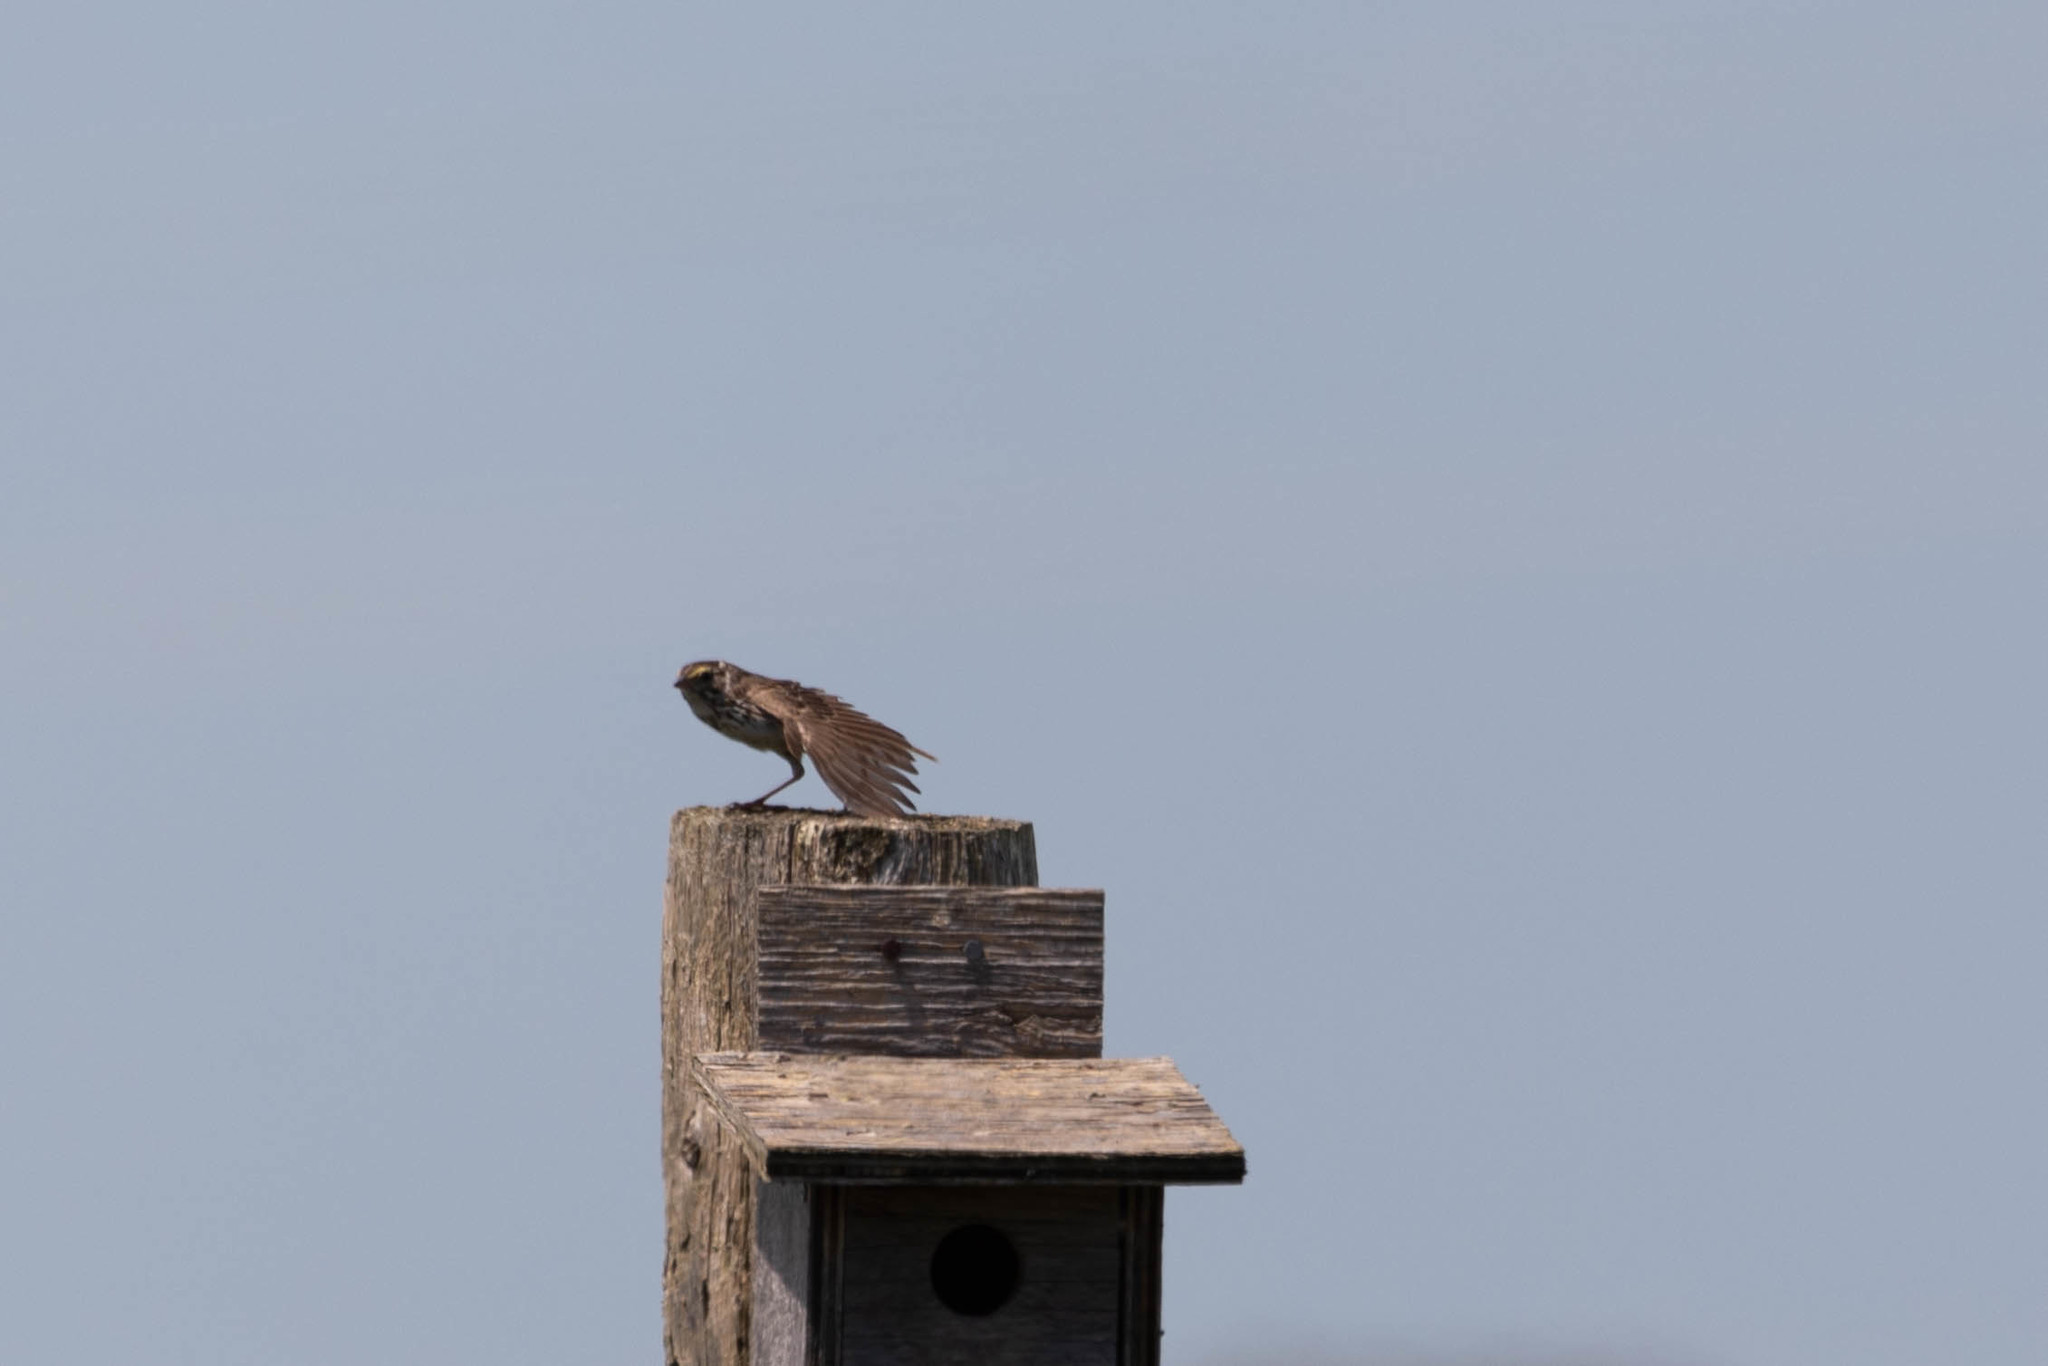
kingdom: Animalia
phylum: Chordata
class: Aves
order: Passeriformes
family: Passerellidae
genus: Passerculus
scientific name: Passerculus sandwichensis
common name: Savannah sparrow
